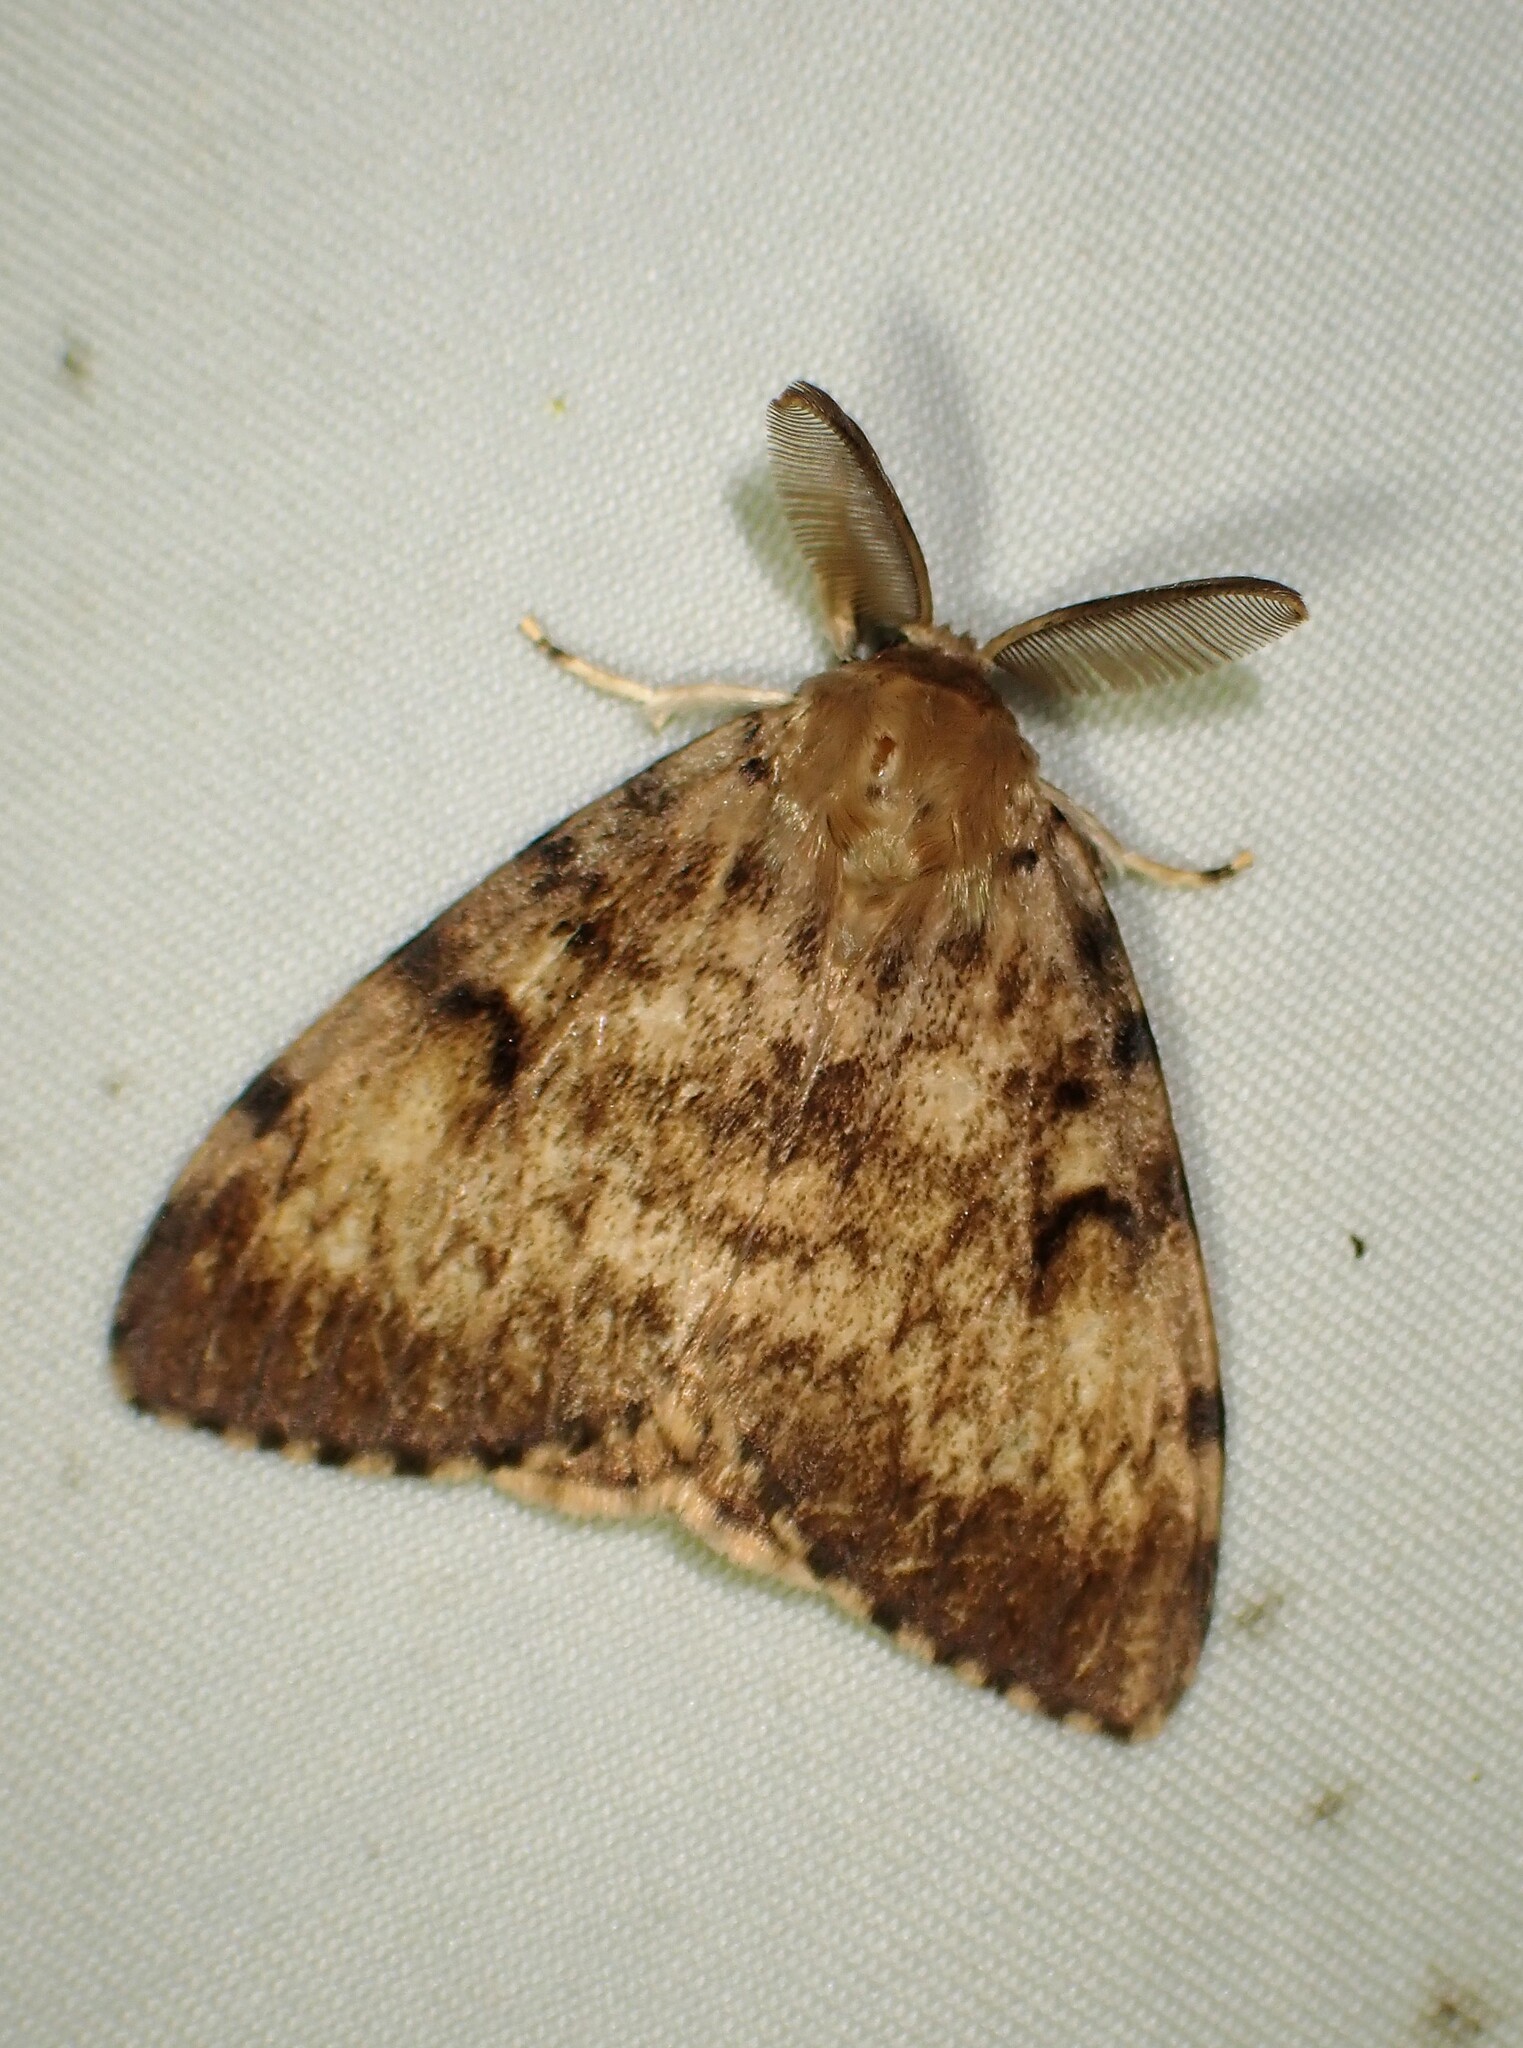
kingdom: Animalia
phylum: Arthropoda
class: Insecta
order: Lepidoptera
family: Erebidae
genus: Lymantria
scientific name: Lymantria dispar
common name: Gypsy moth
